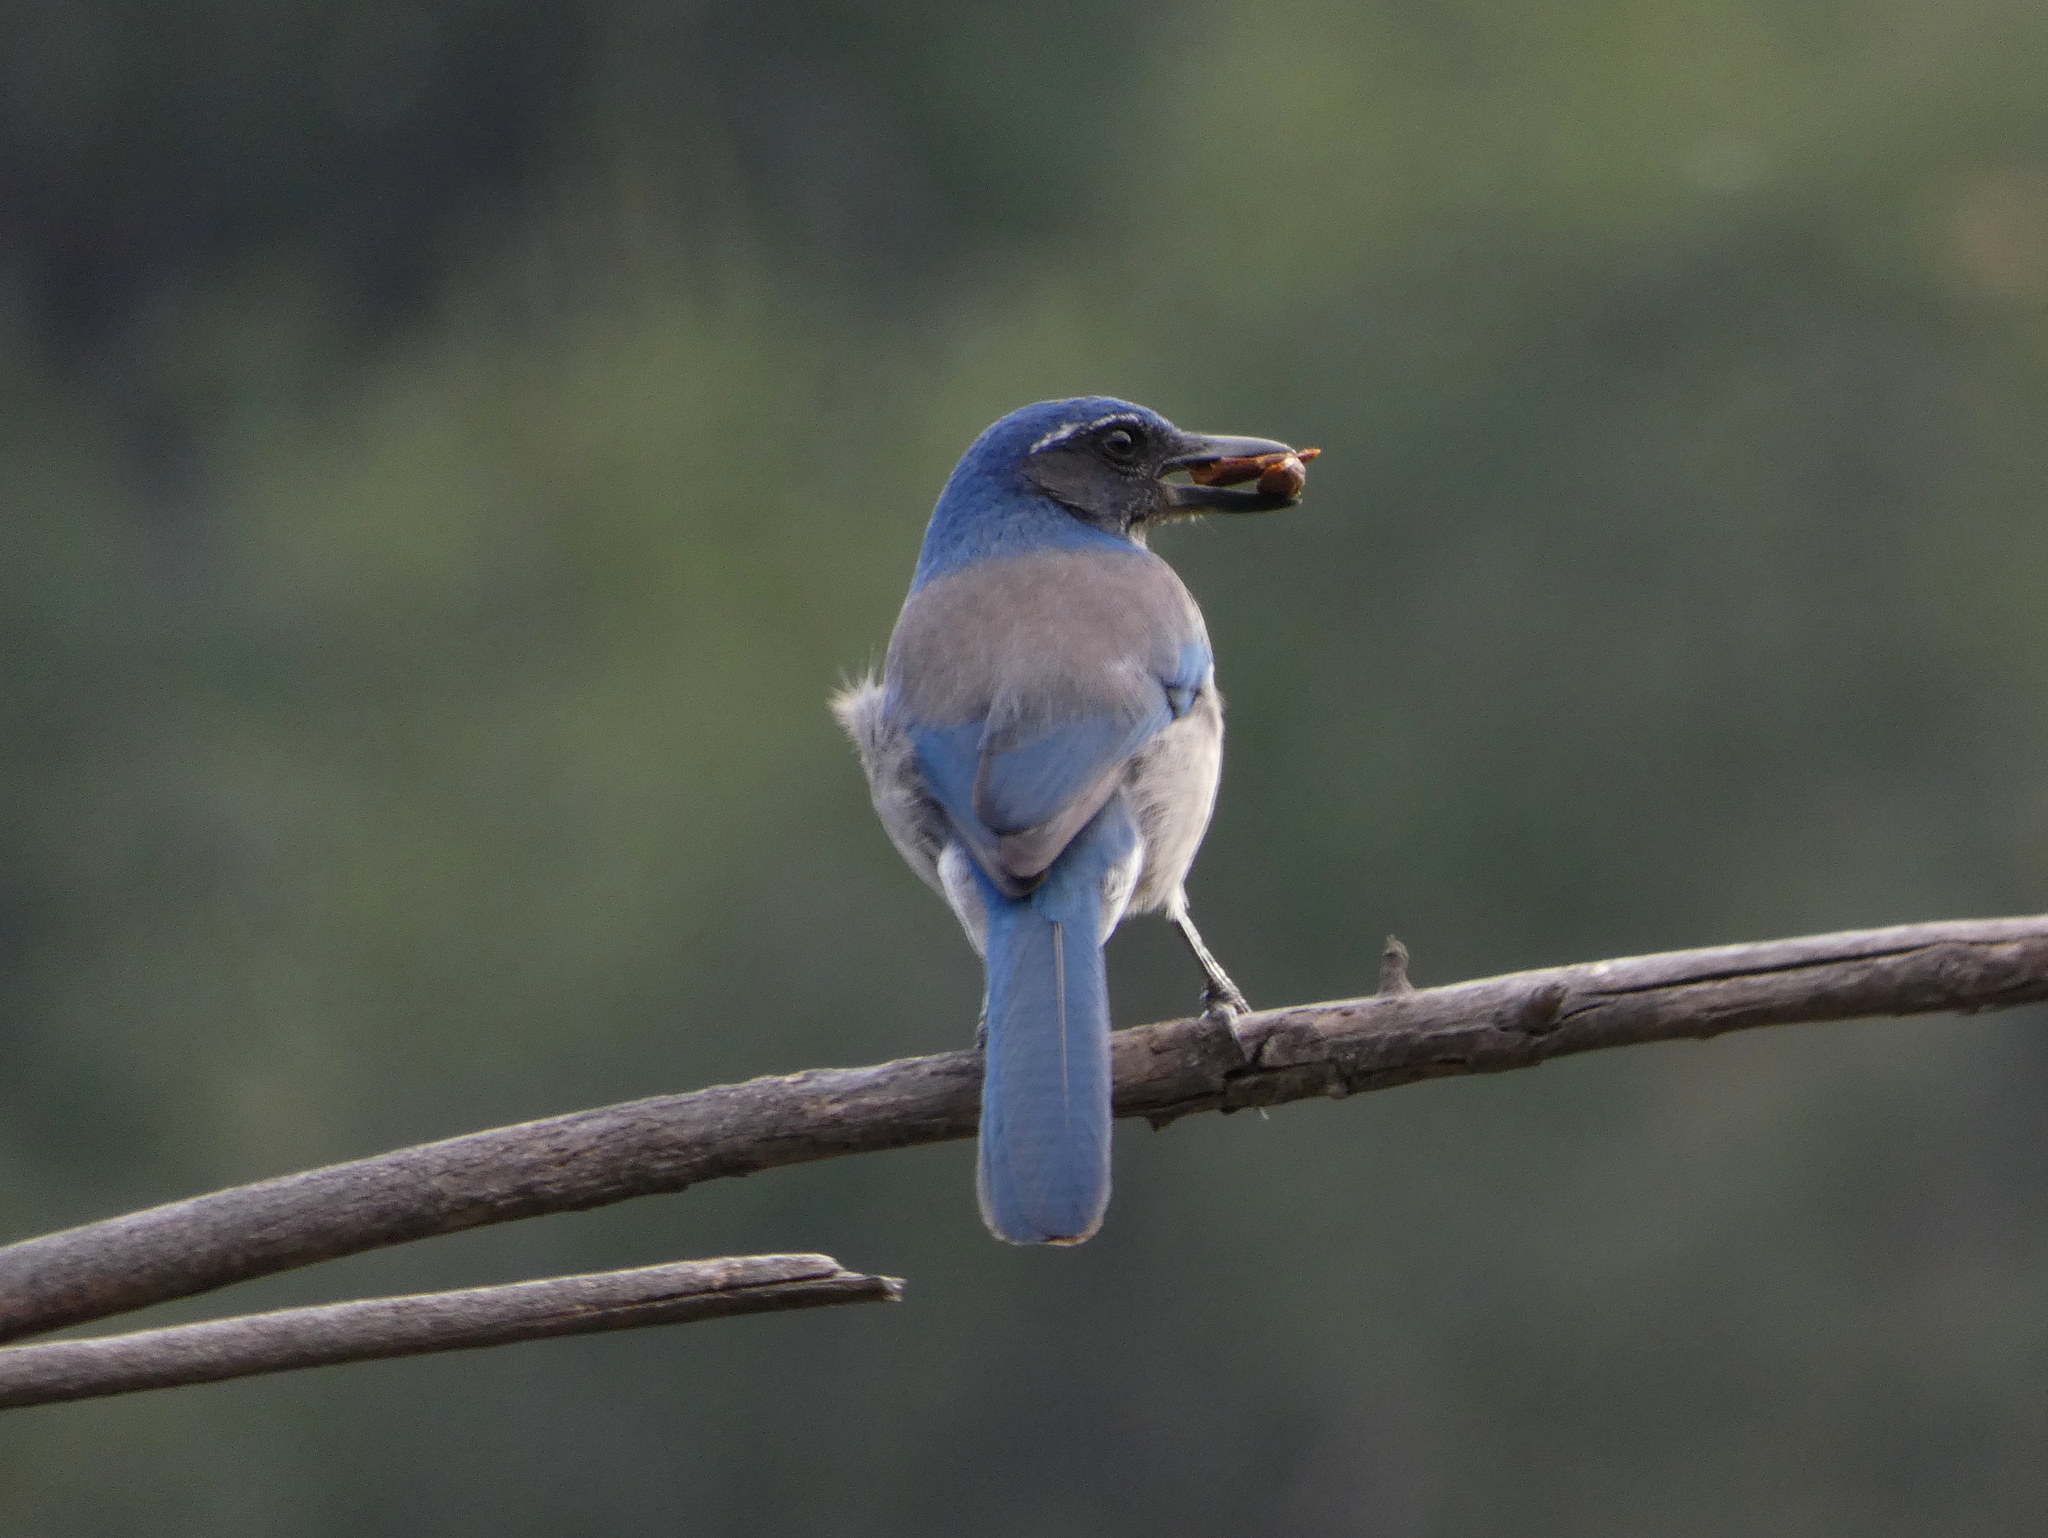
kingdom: Animalia
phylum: Chordata
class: Aves
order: Passeriformes
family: Corvidae
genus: Aphelocoma
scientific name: Aphelocoma californica
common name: California scrub-jay
